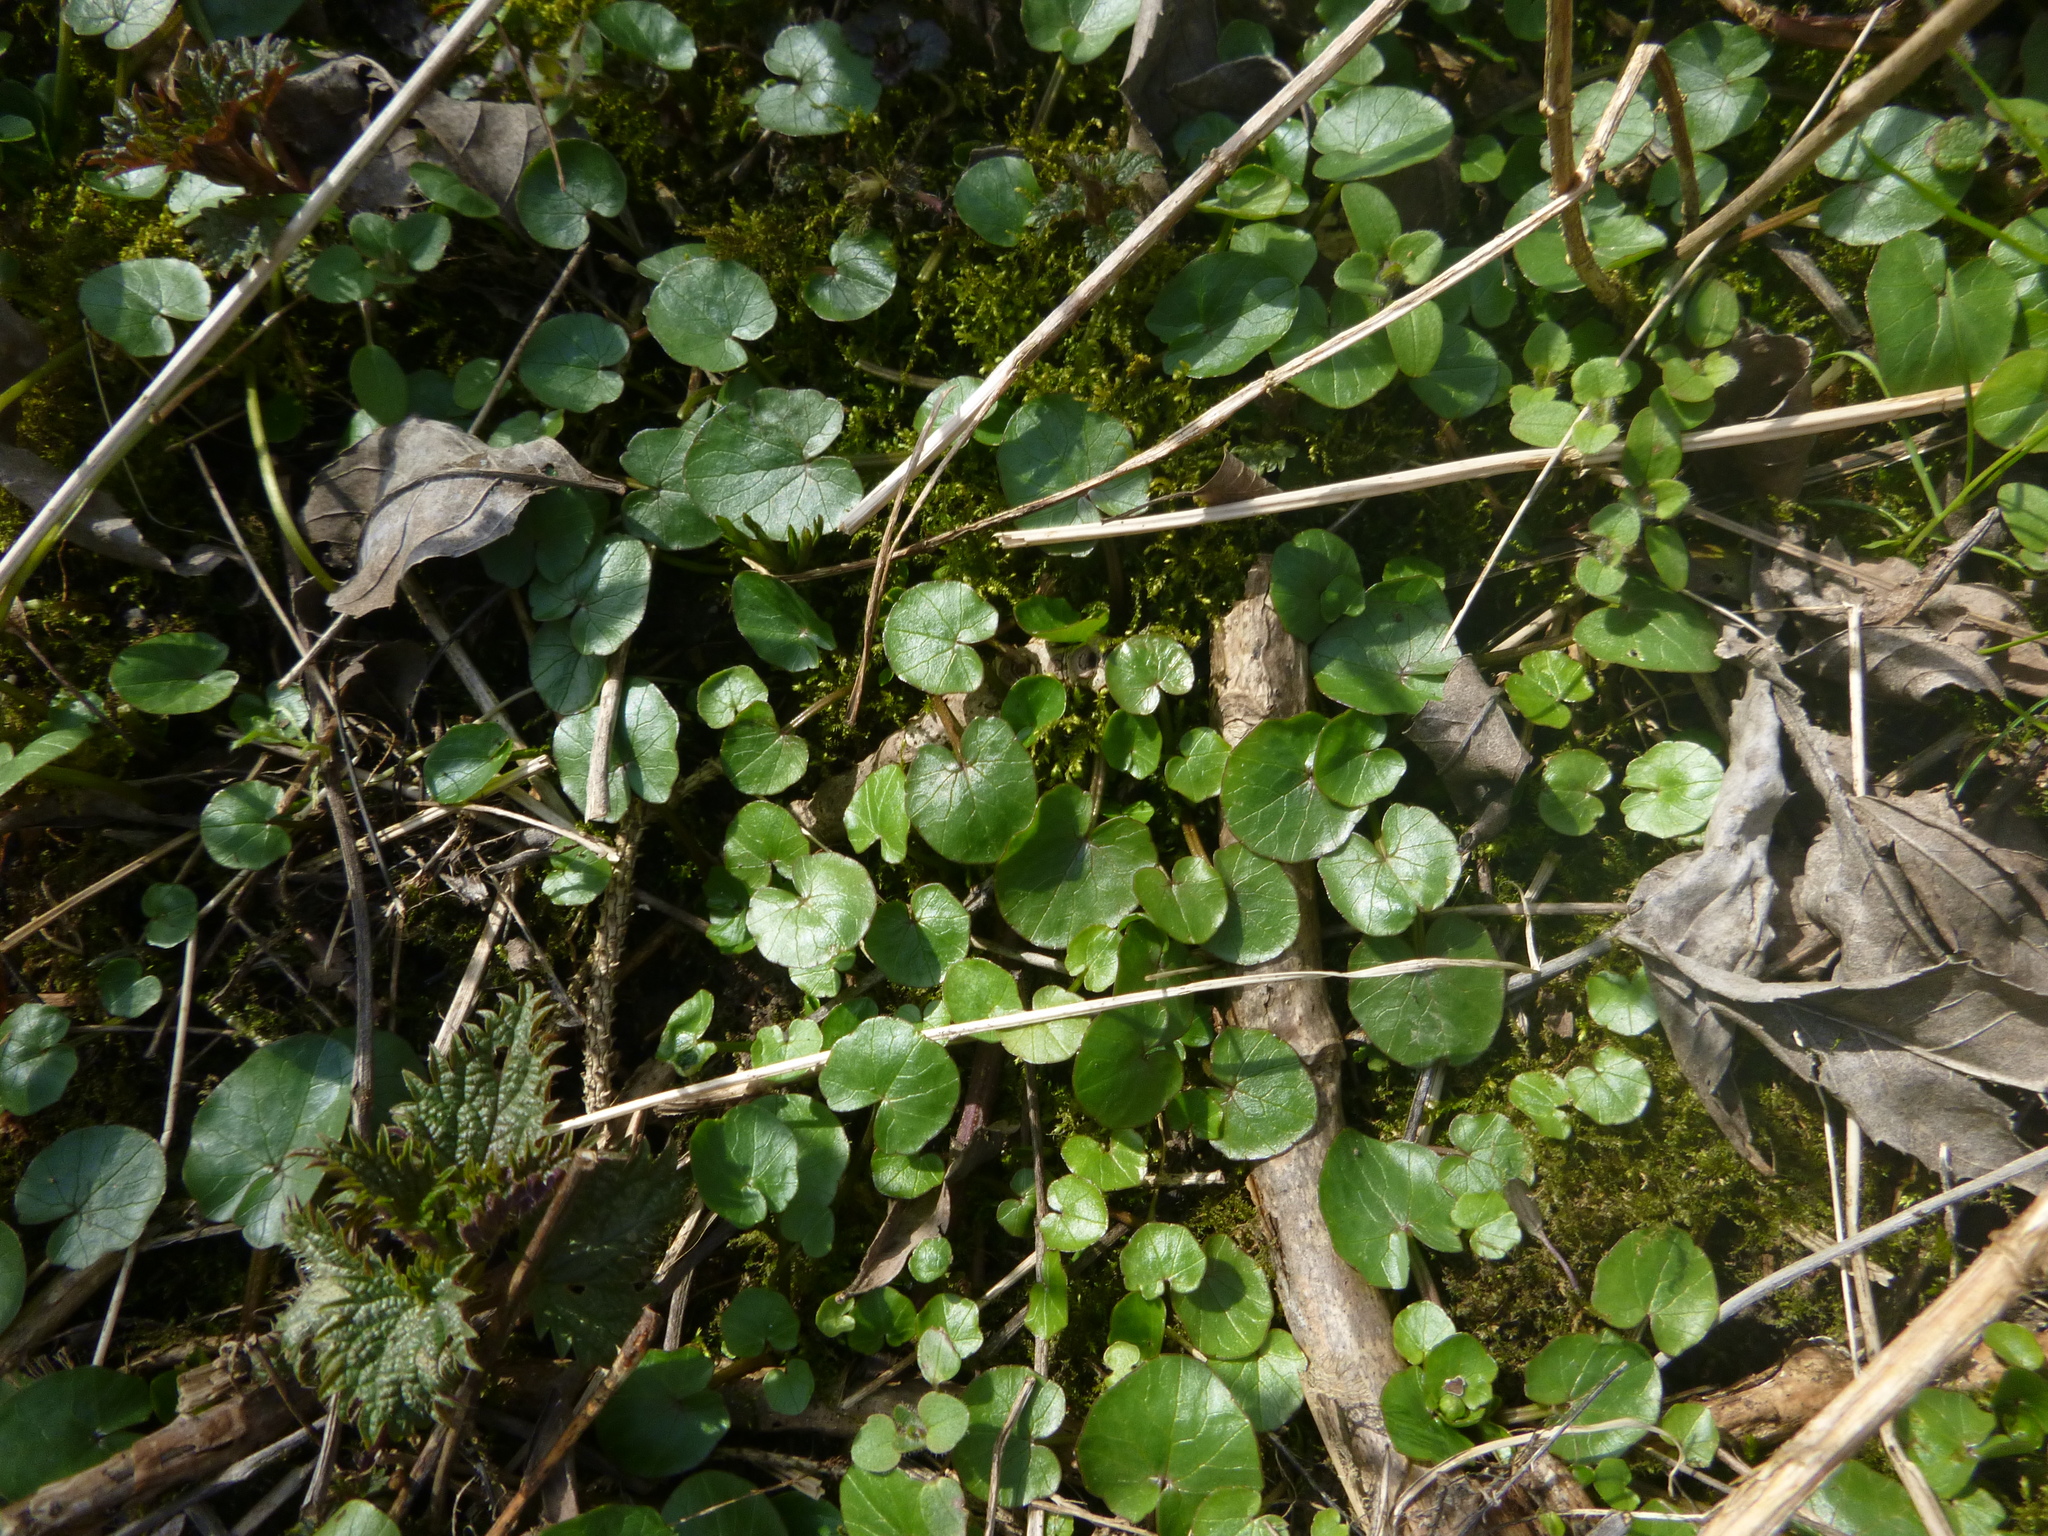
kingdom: Plantae
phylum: Tracheophyta
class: Magnoliopsida
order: Ranunculales
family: Ranunculaceae
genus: Ficaria
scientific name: Ficaria verna
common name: Lesser celandine
